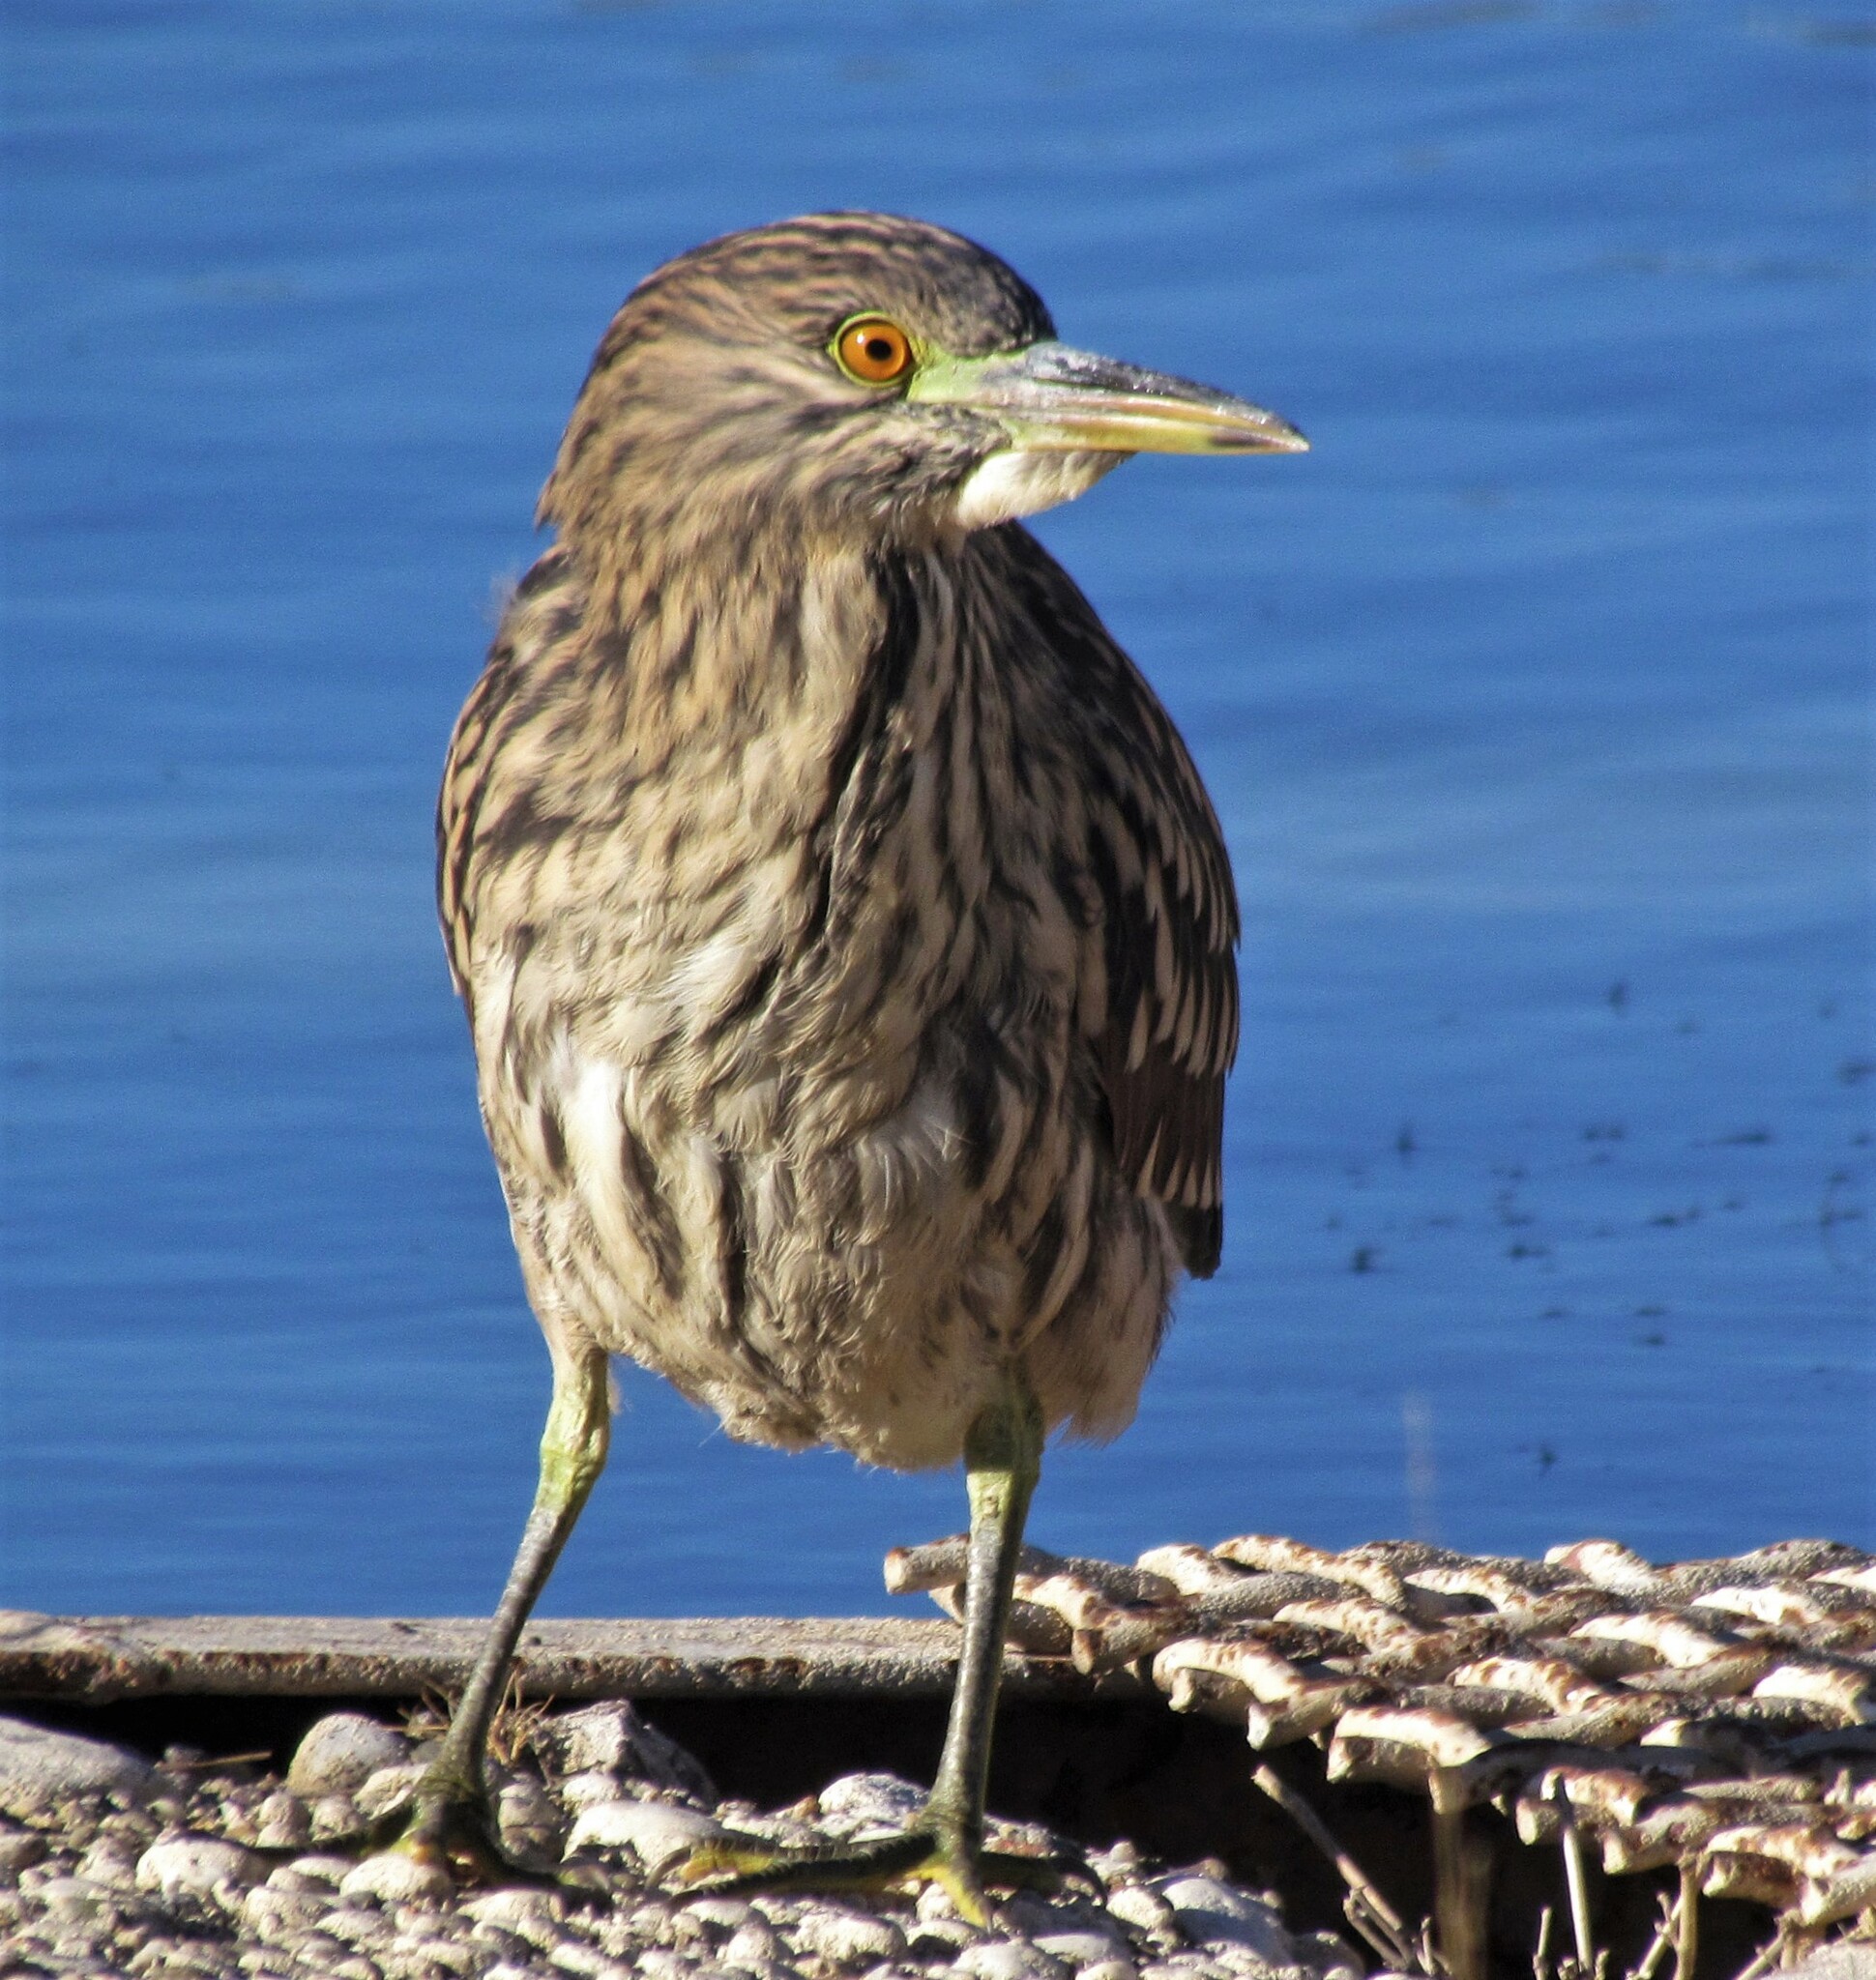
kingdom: Animalia
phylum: Chordata
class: Aves
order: Pelecaniformes
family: Ardeidae
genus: Nycticorax
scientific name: Nycticorax nycticorax
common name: Black-crowned night heron
